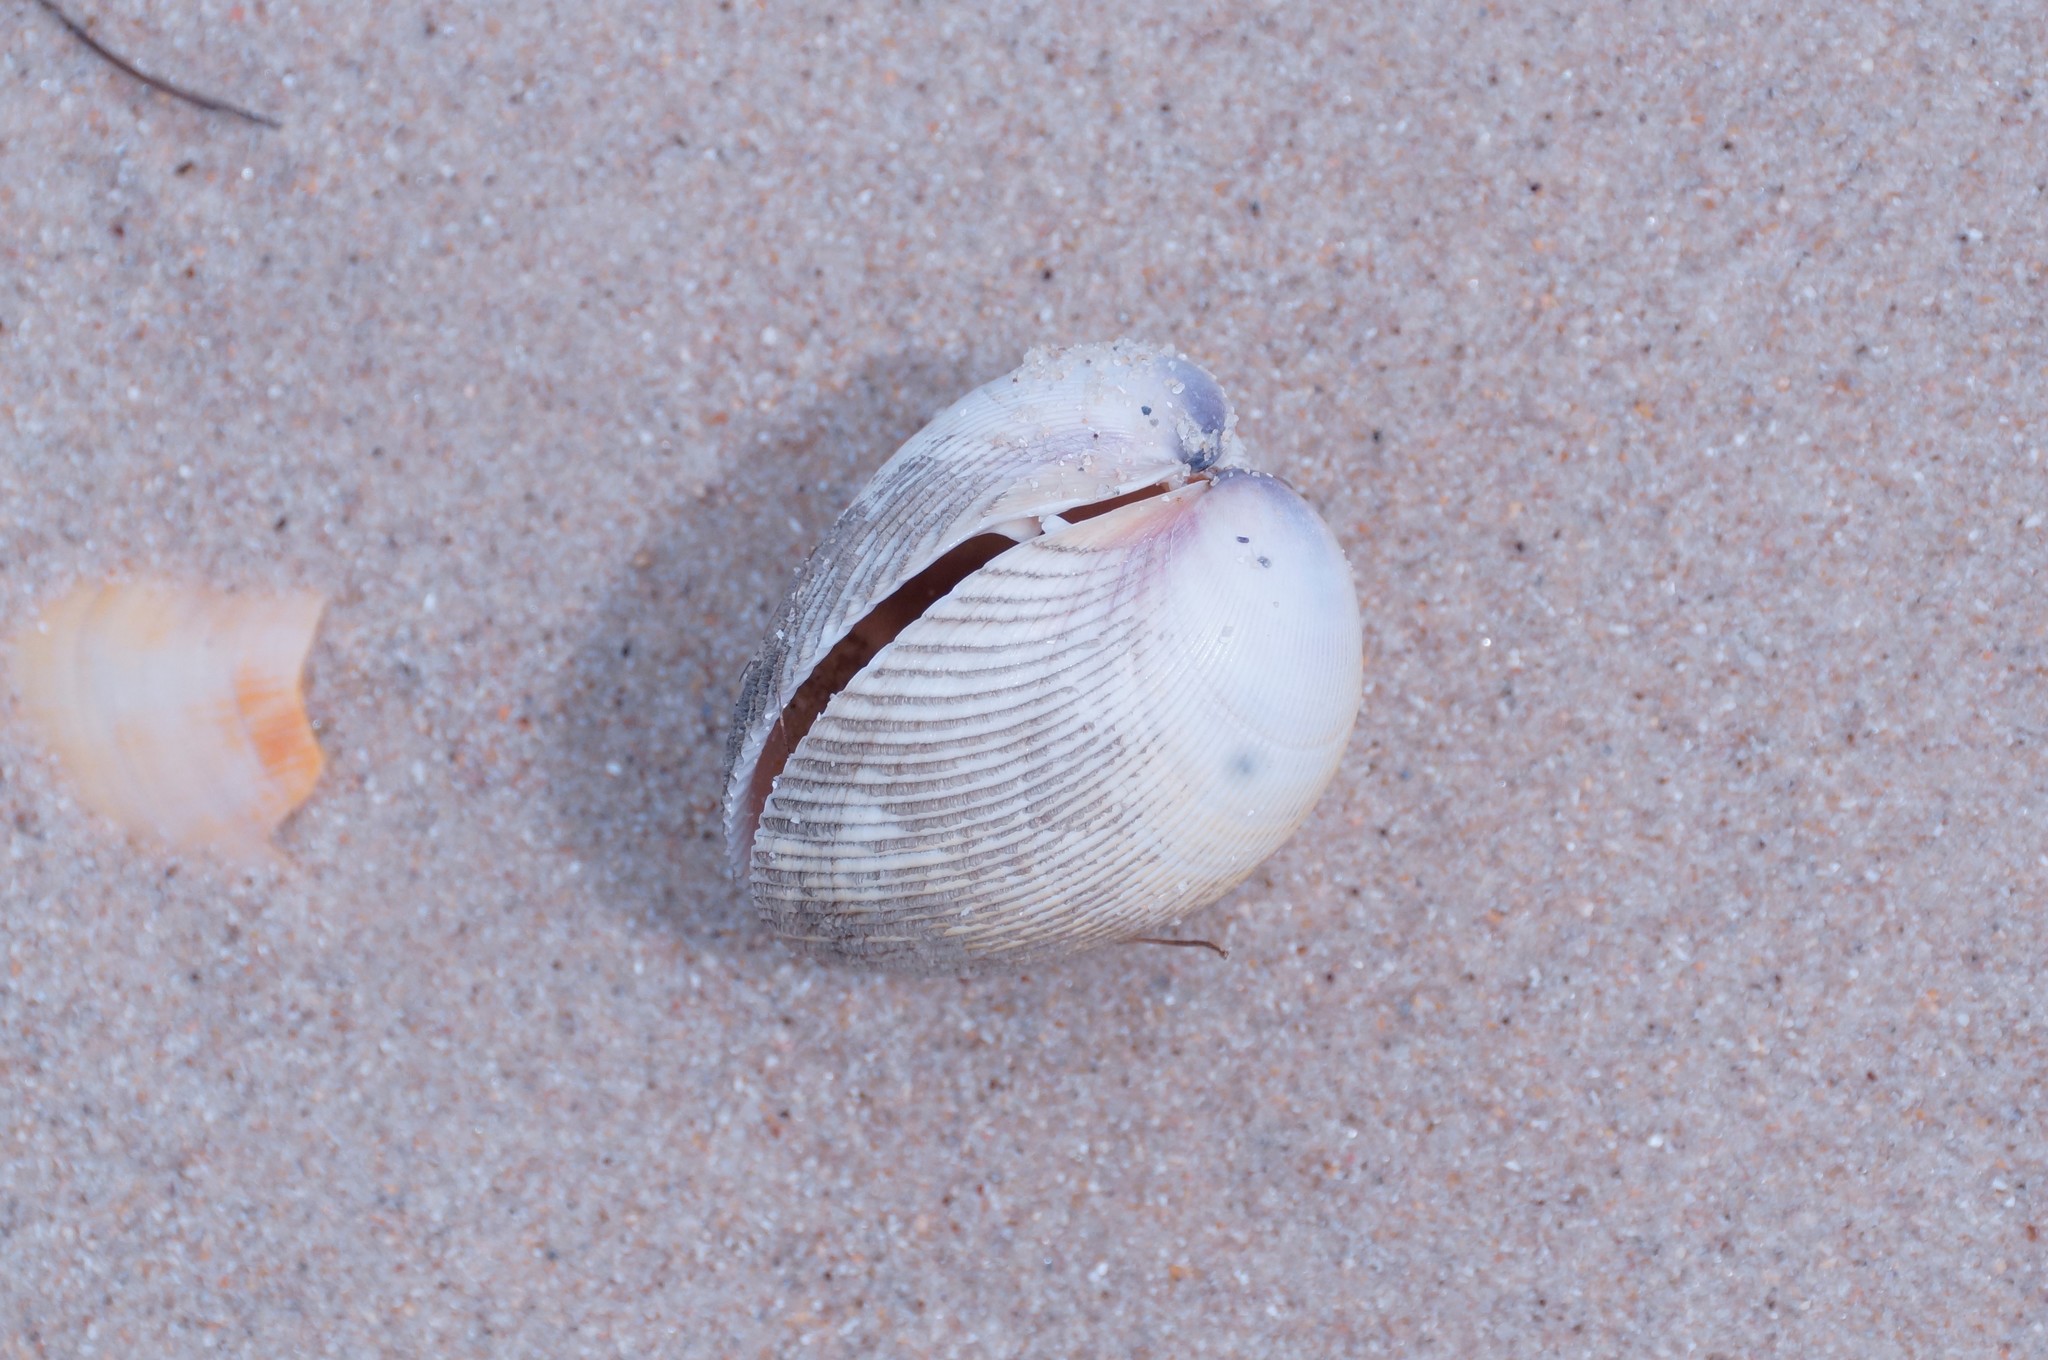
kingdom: Animalia
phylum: Mollusca
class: Bivalvia
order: Cardiida
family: Cardiidae
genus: Fulvia
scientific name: Fulvia tenuicostata
